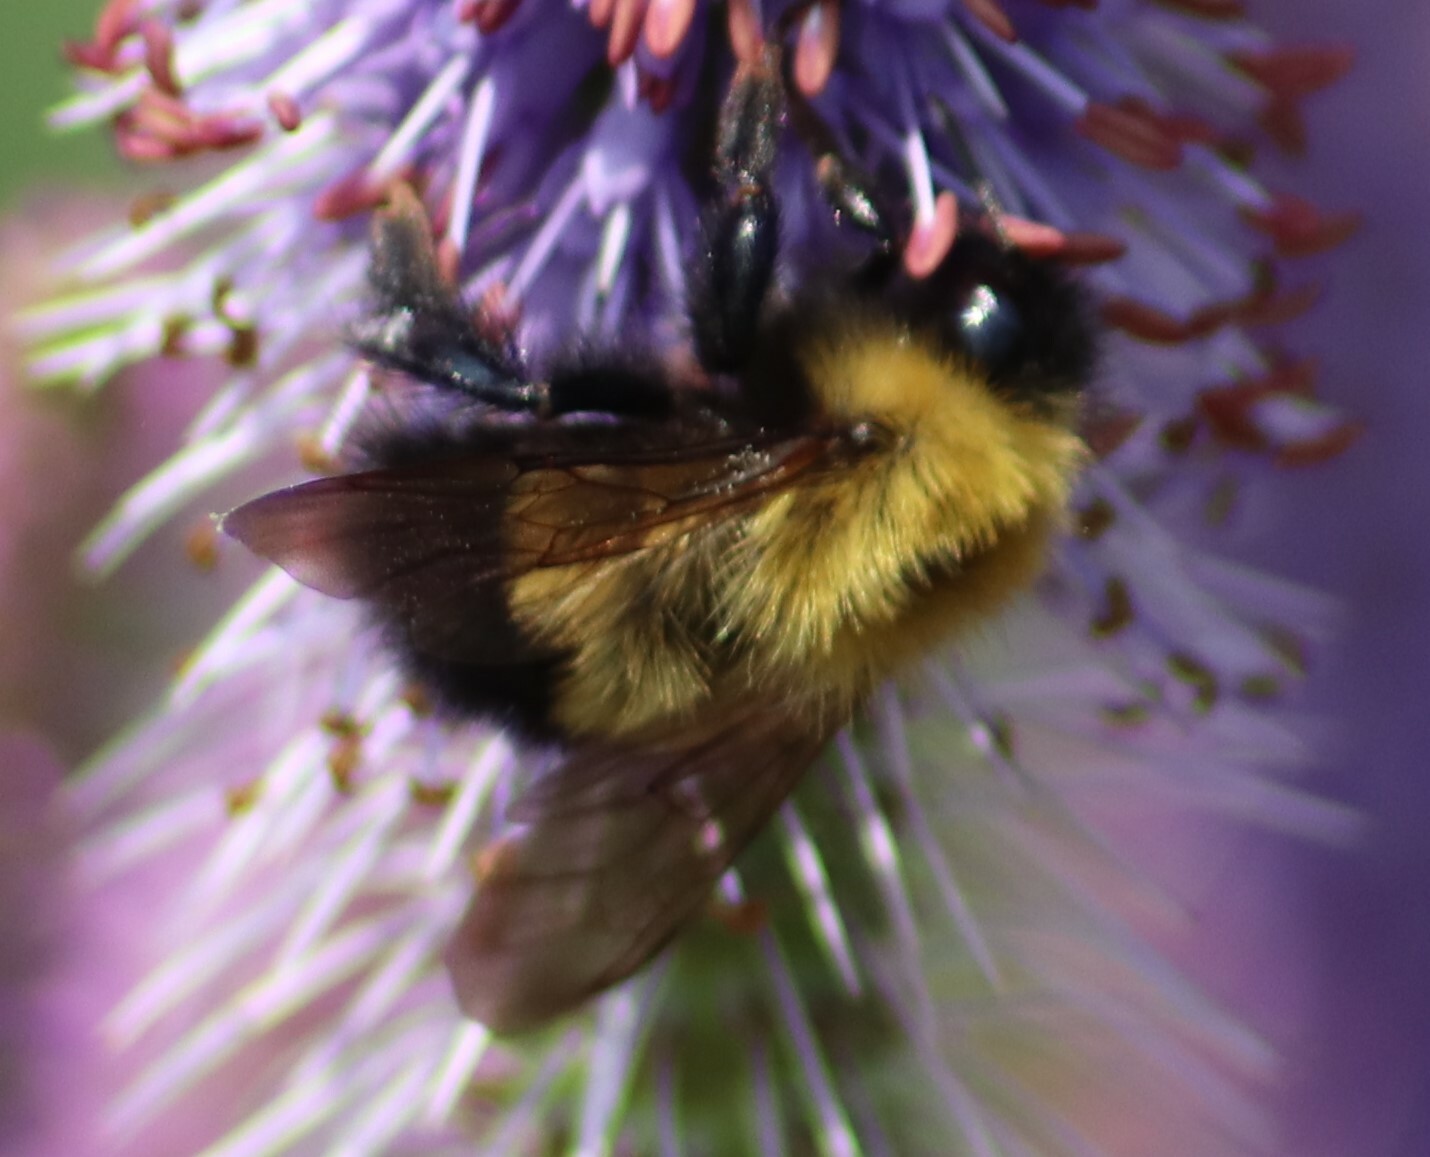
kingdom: Animalia
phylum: Arthropoda
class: Insecta
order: Hymenoptera
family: Apidae
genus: Bombus
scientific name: Bombus perplexus
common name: Confusing bumble bee
